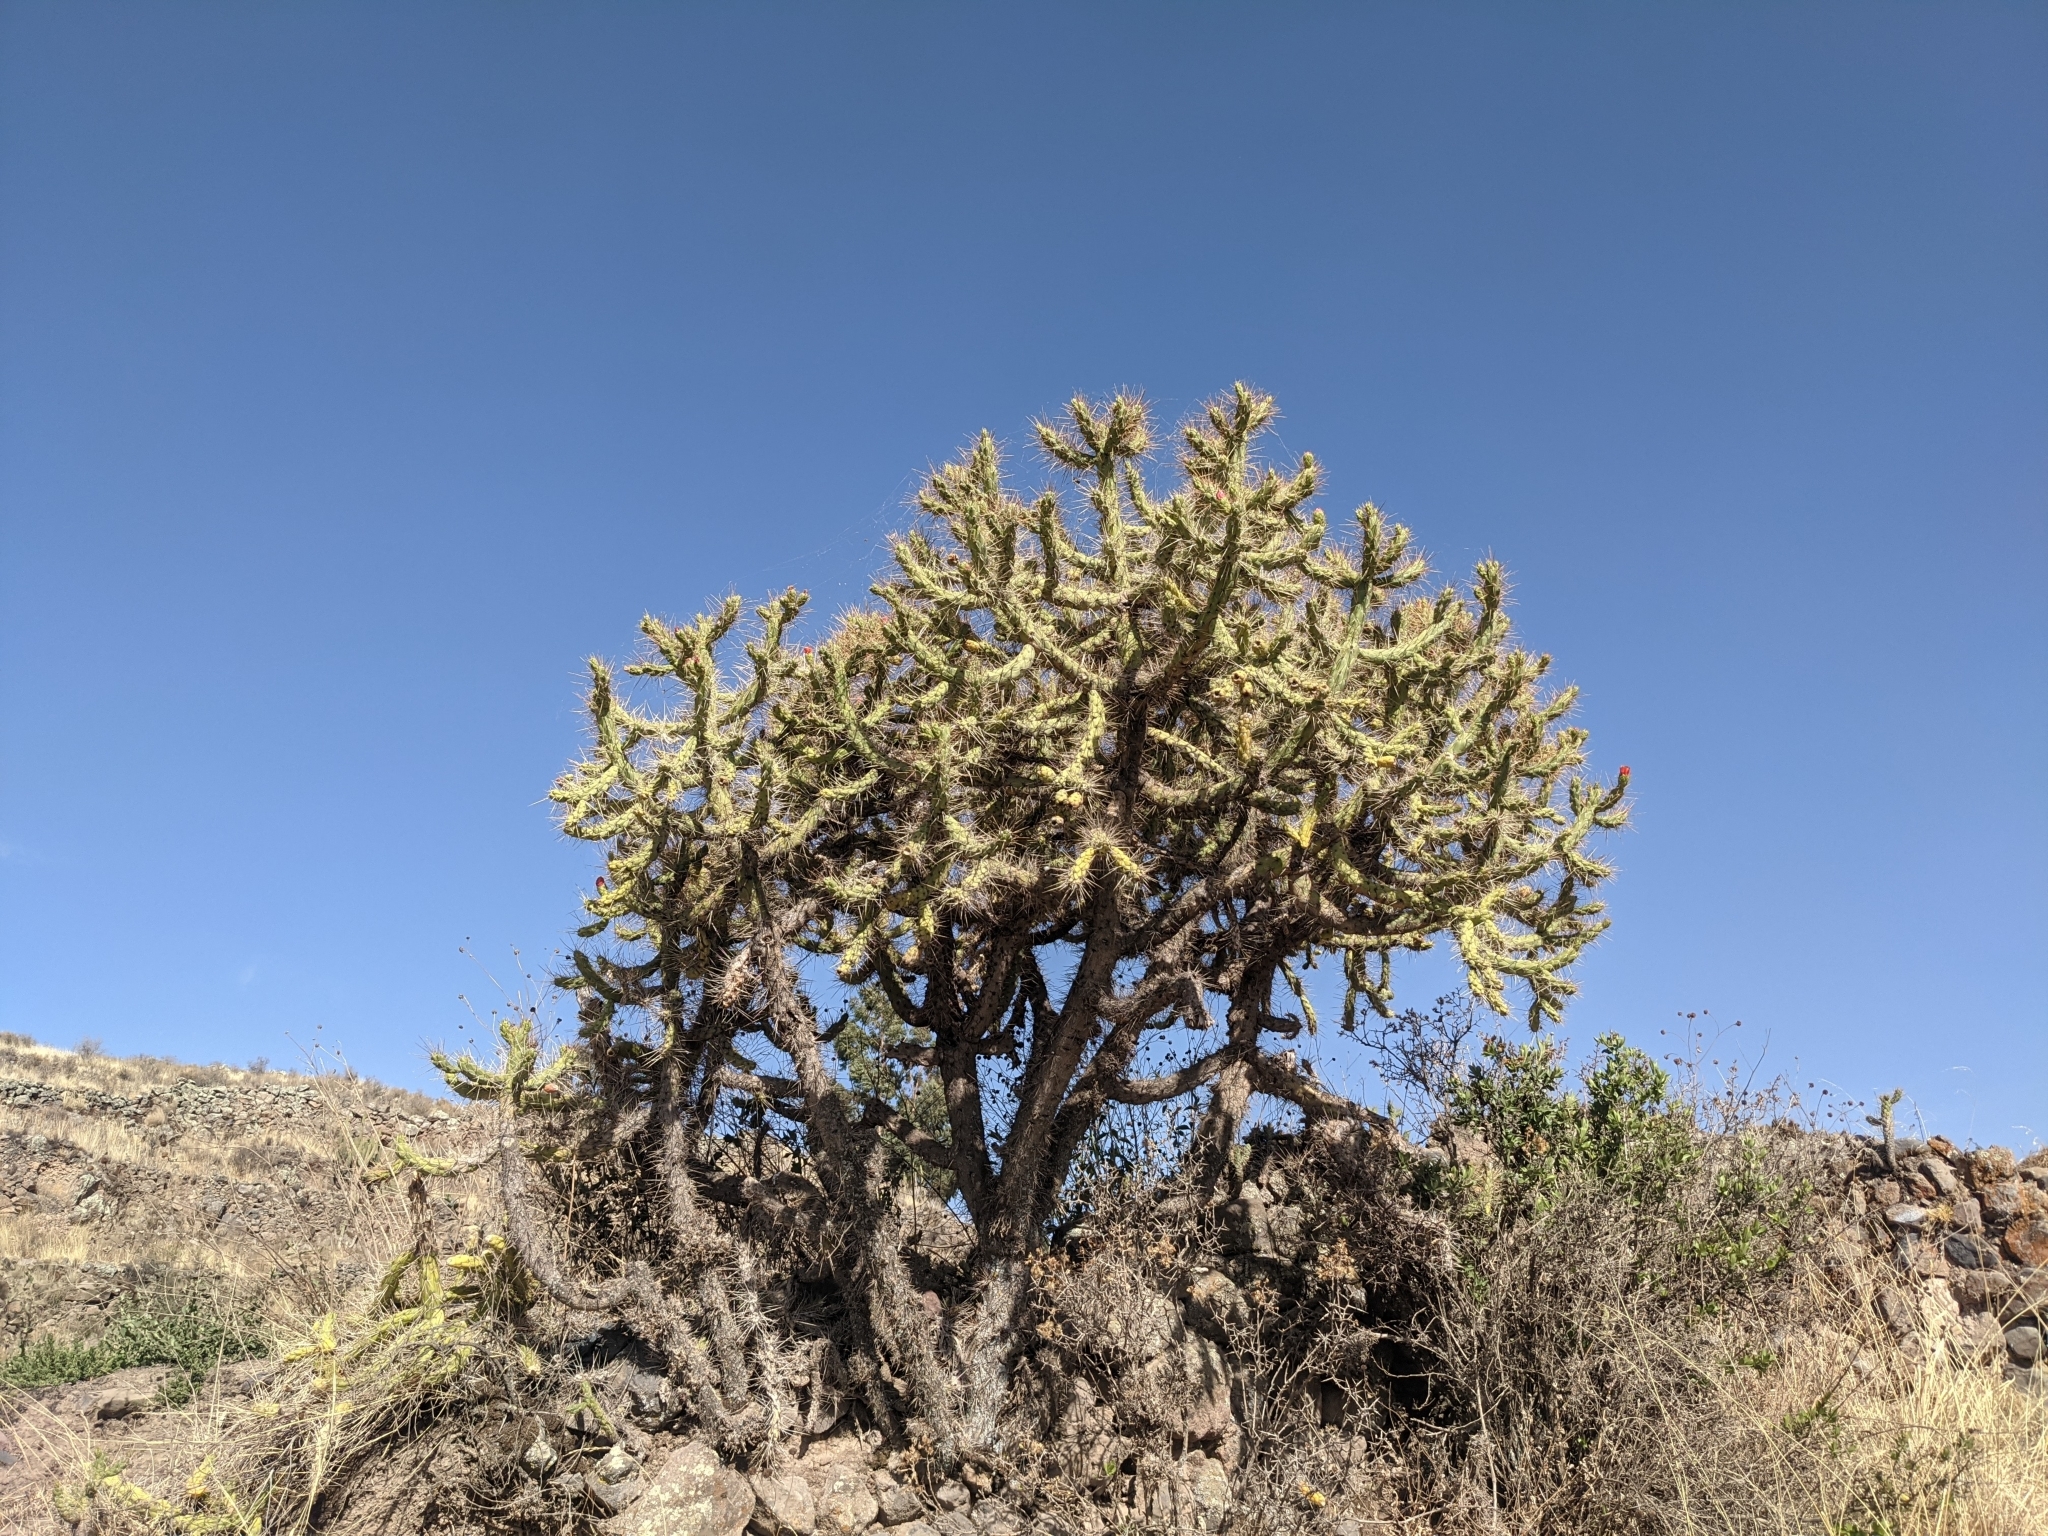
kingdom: Plantae
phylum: Tracheophyta
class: Magnoliopsida
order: Caryophyllales
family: Cactaceae
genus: Austrocylindropuntia
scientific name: Austrocylindropuntia subulata
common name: Eve's needle cactus
